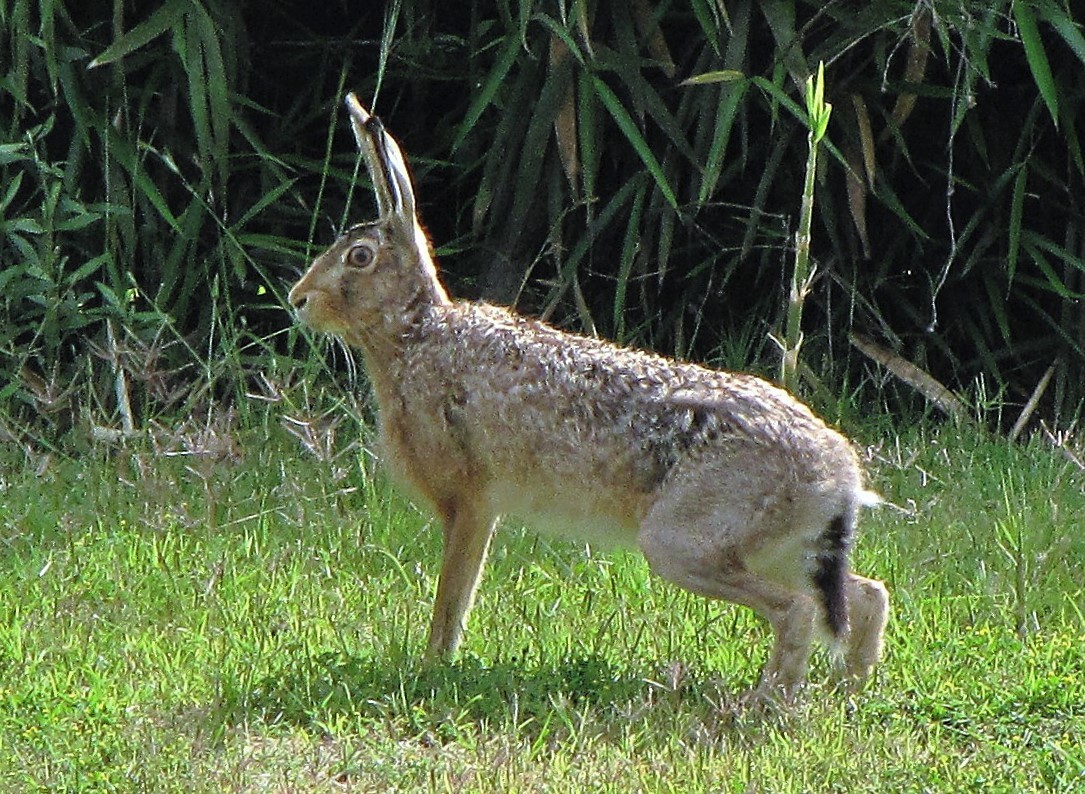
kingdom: Animalia
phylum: Chordata
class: Mammalia
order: Lagomorpha
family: Leporidae
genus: Lepus
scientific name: Lepus europaeus
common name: European hare
